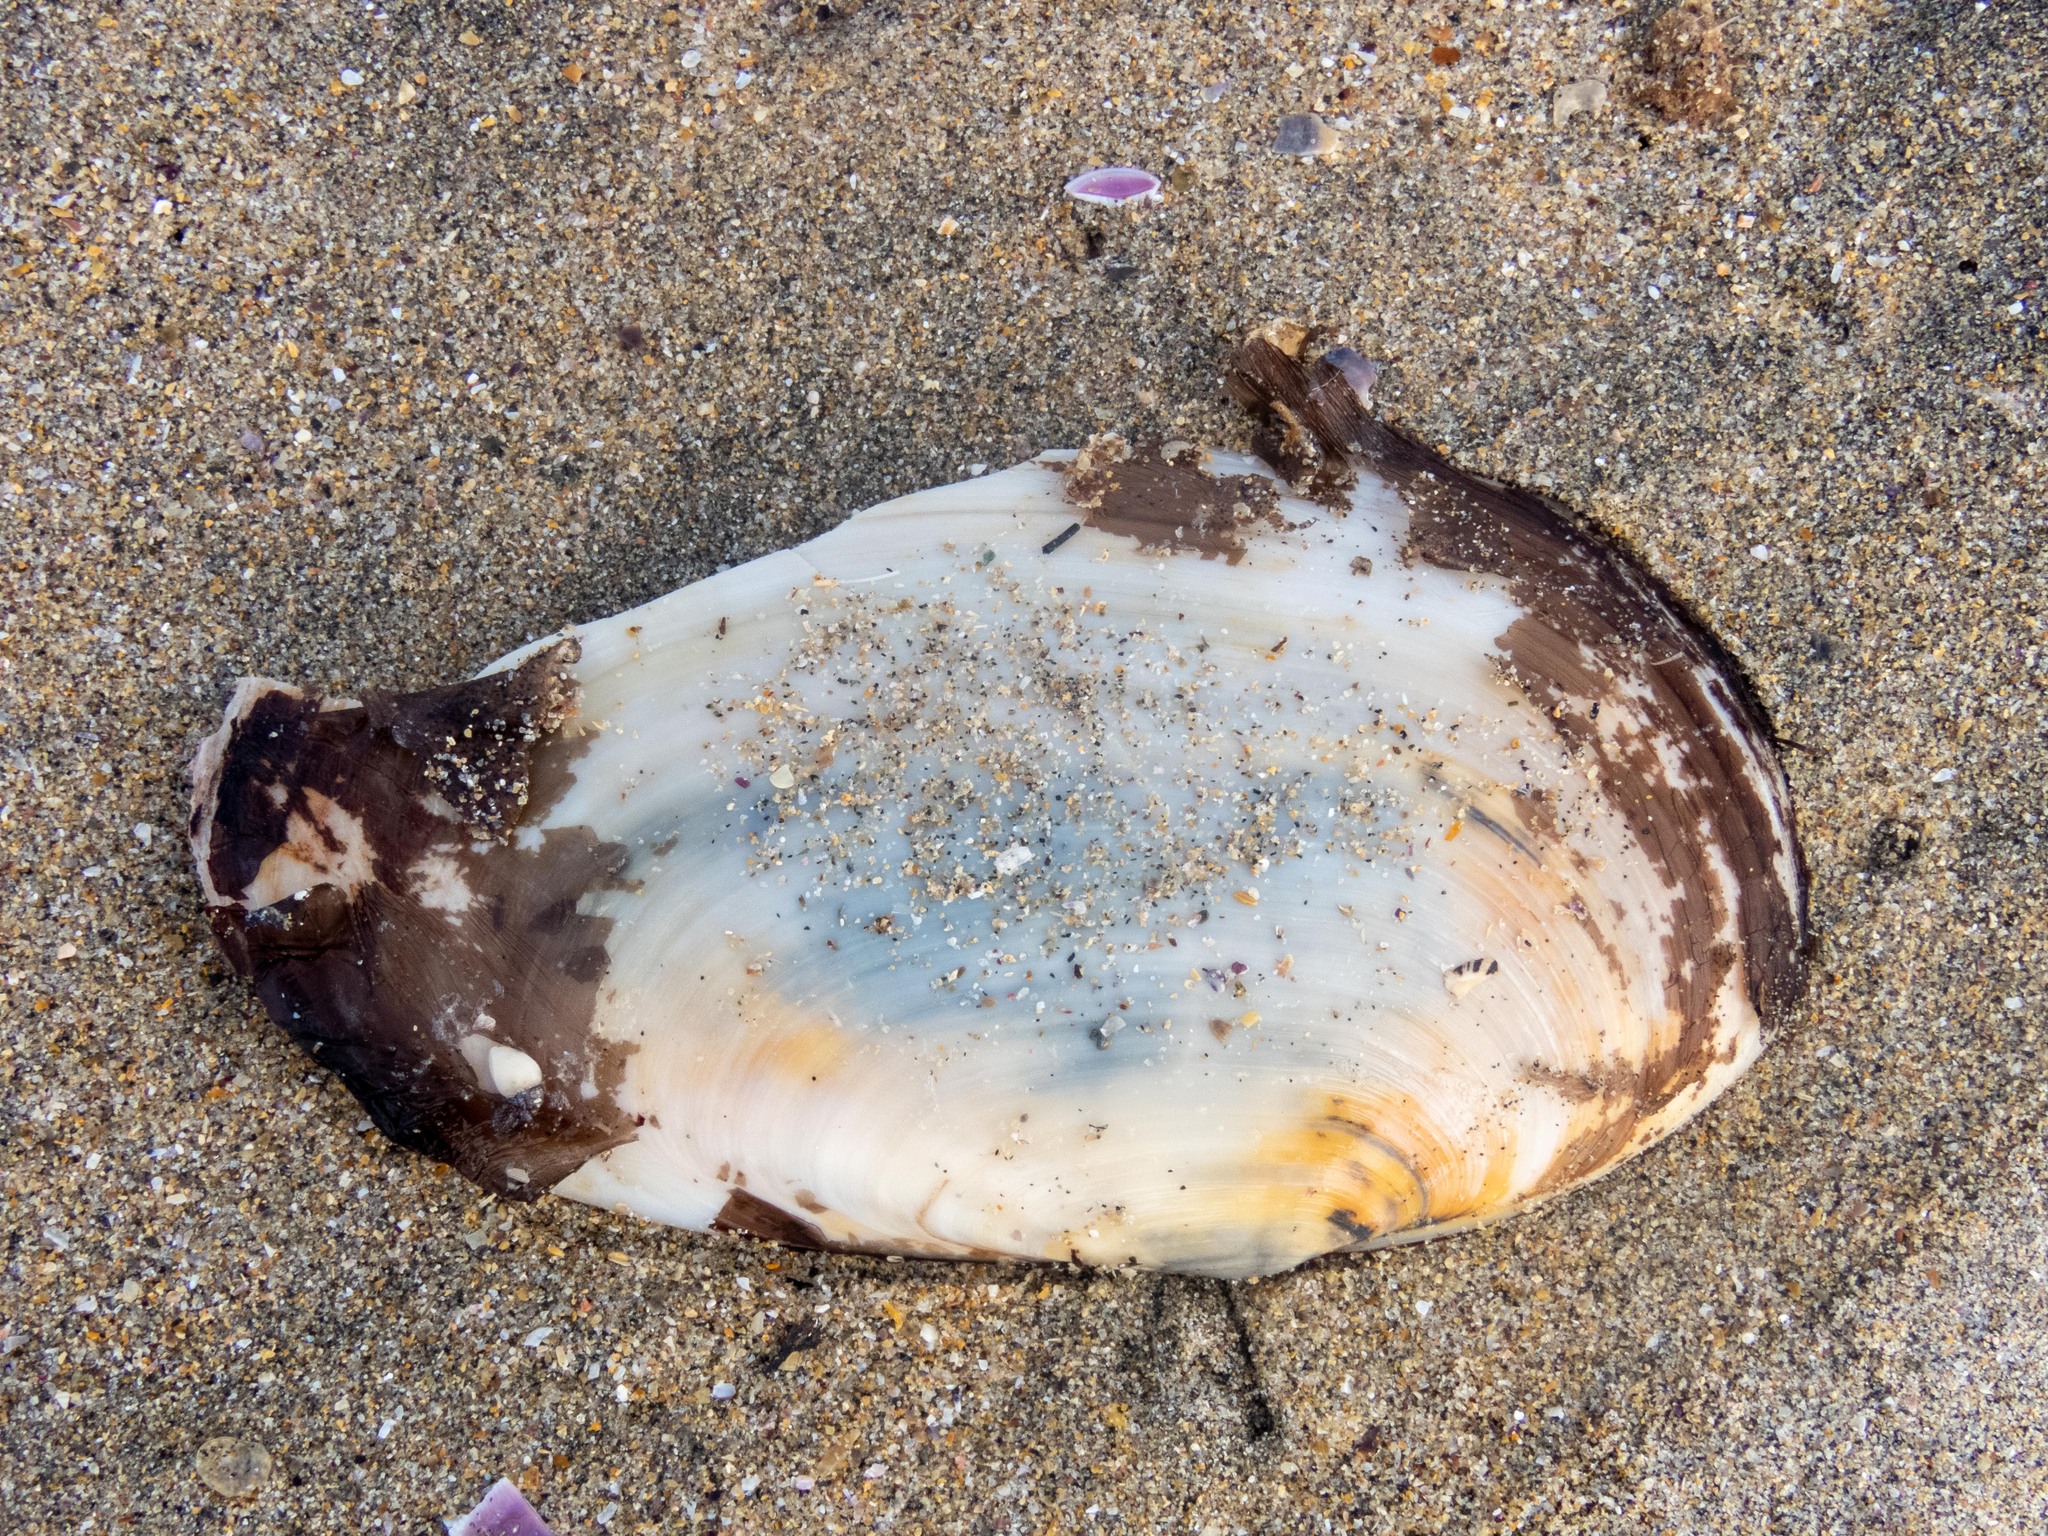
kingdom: Animalia
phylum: Mollusca
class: Bivalvia
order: Venerida
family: Mactridae
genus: Lutraria
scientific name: Lutraria lutraria
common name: Common otter shell
